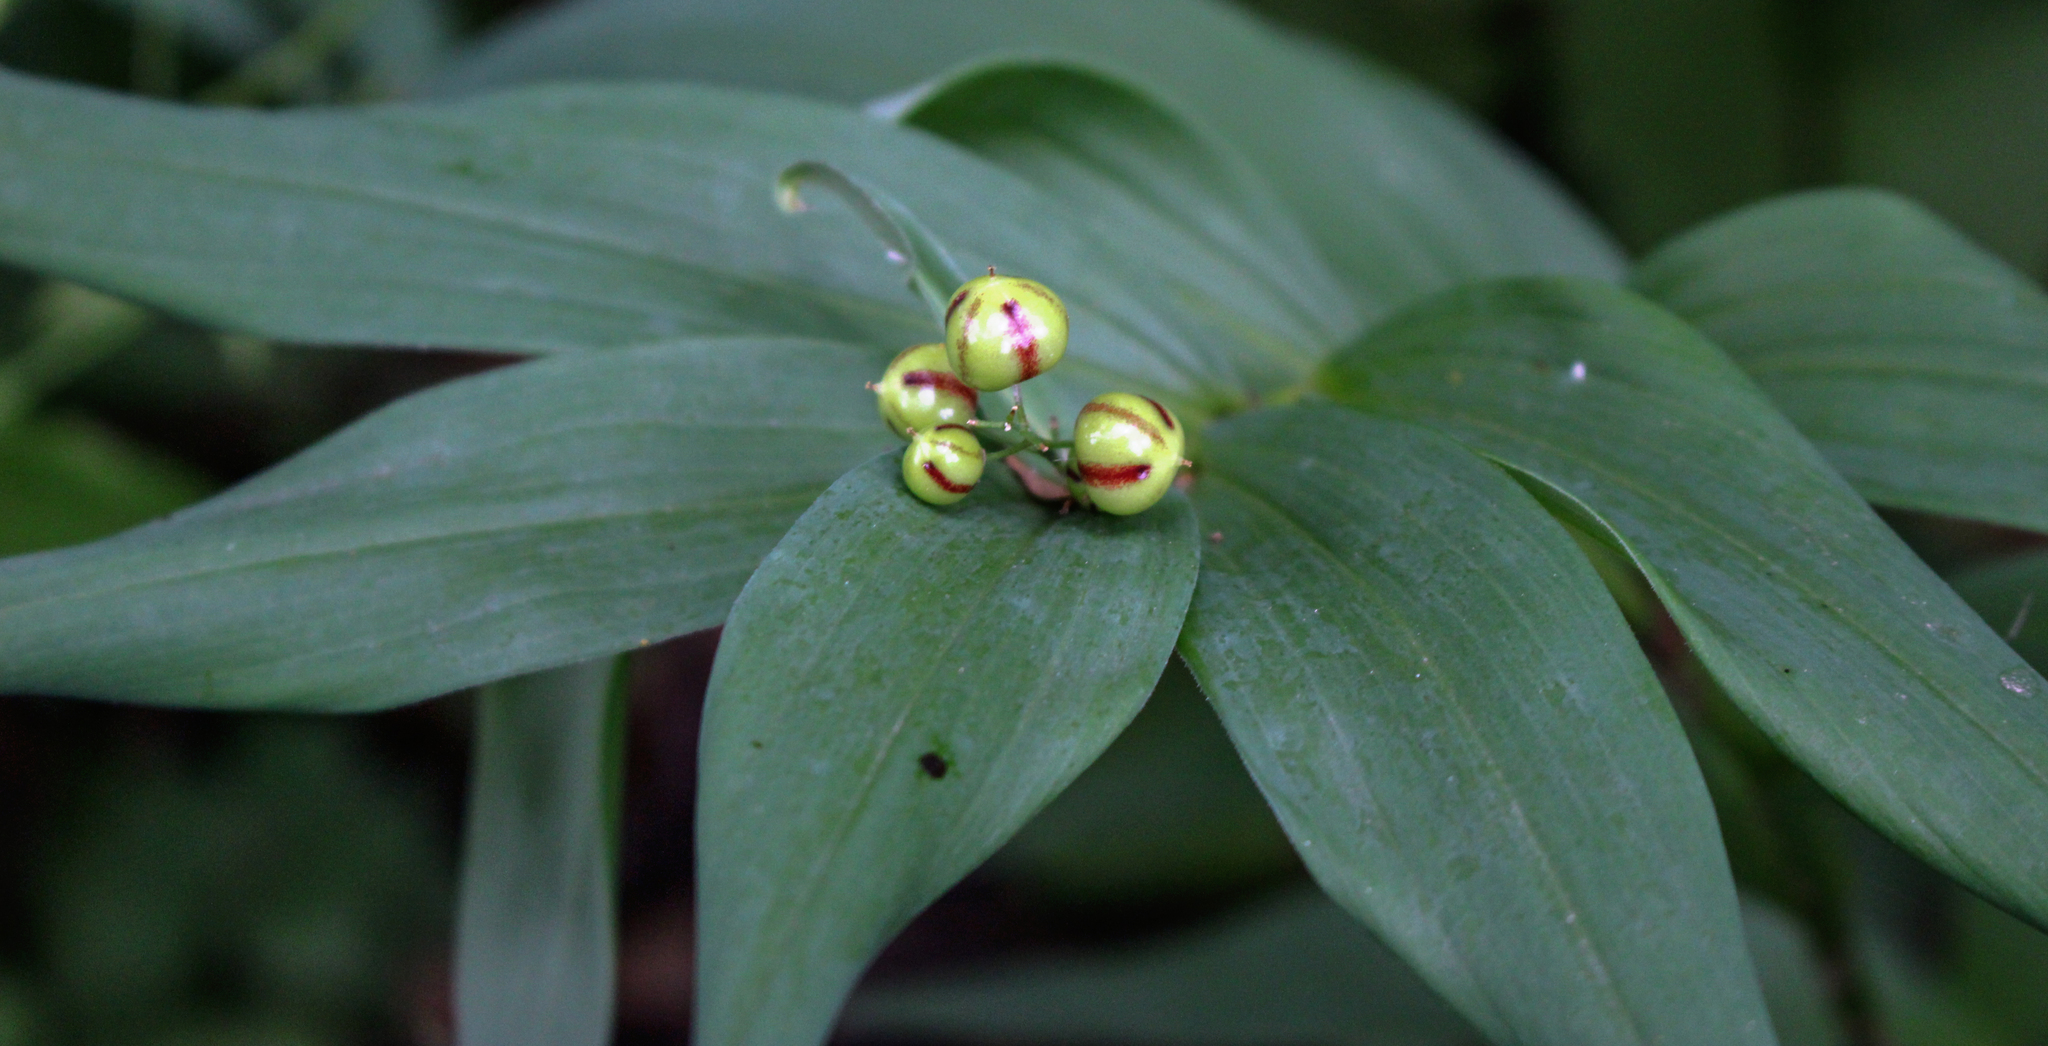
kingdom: Plantae
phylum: Tracheophyta
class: Liliopsida
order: Asparagales
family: Asparagaceae
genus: Maianthemum
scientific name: Maianthemum stellatum
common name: Little false solomon's seal
